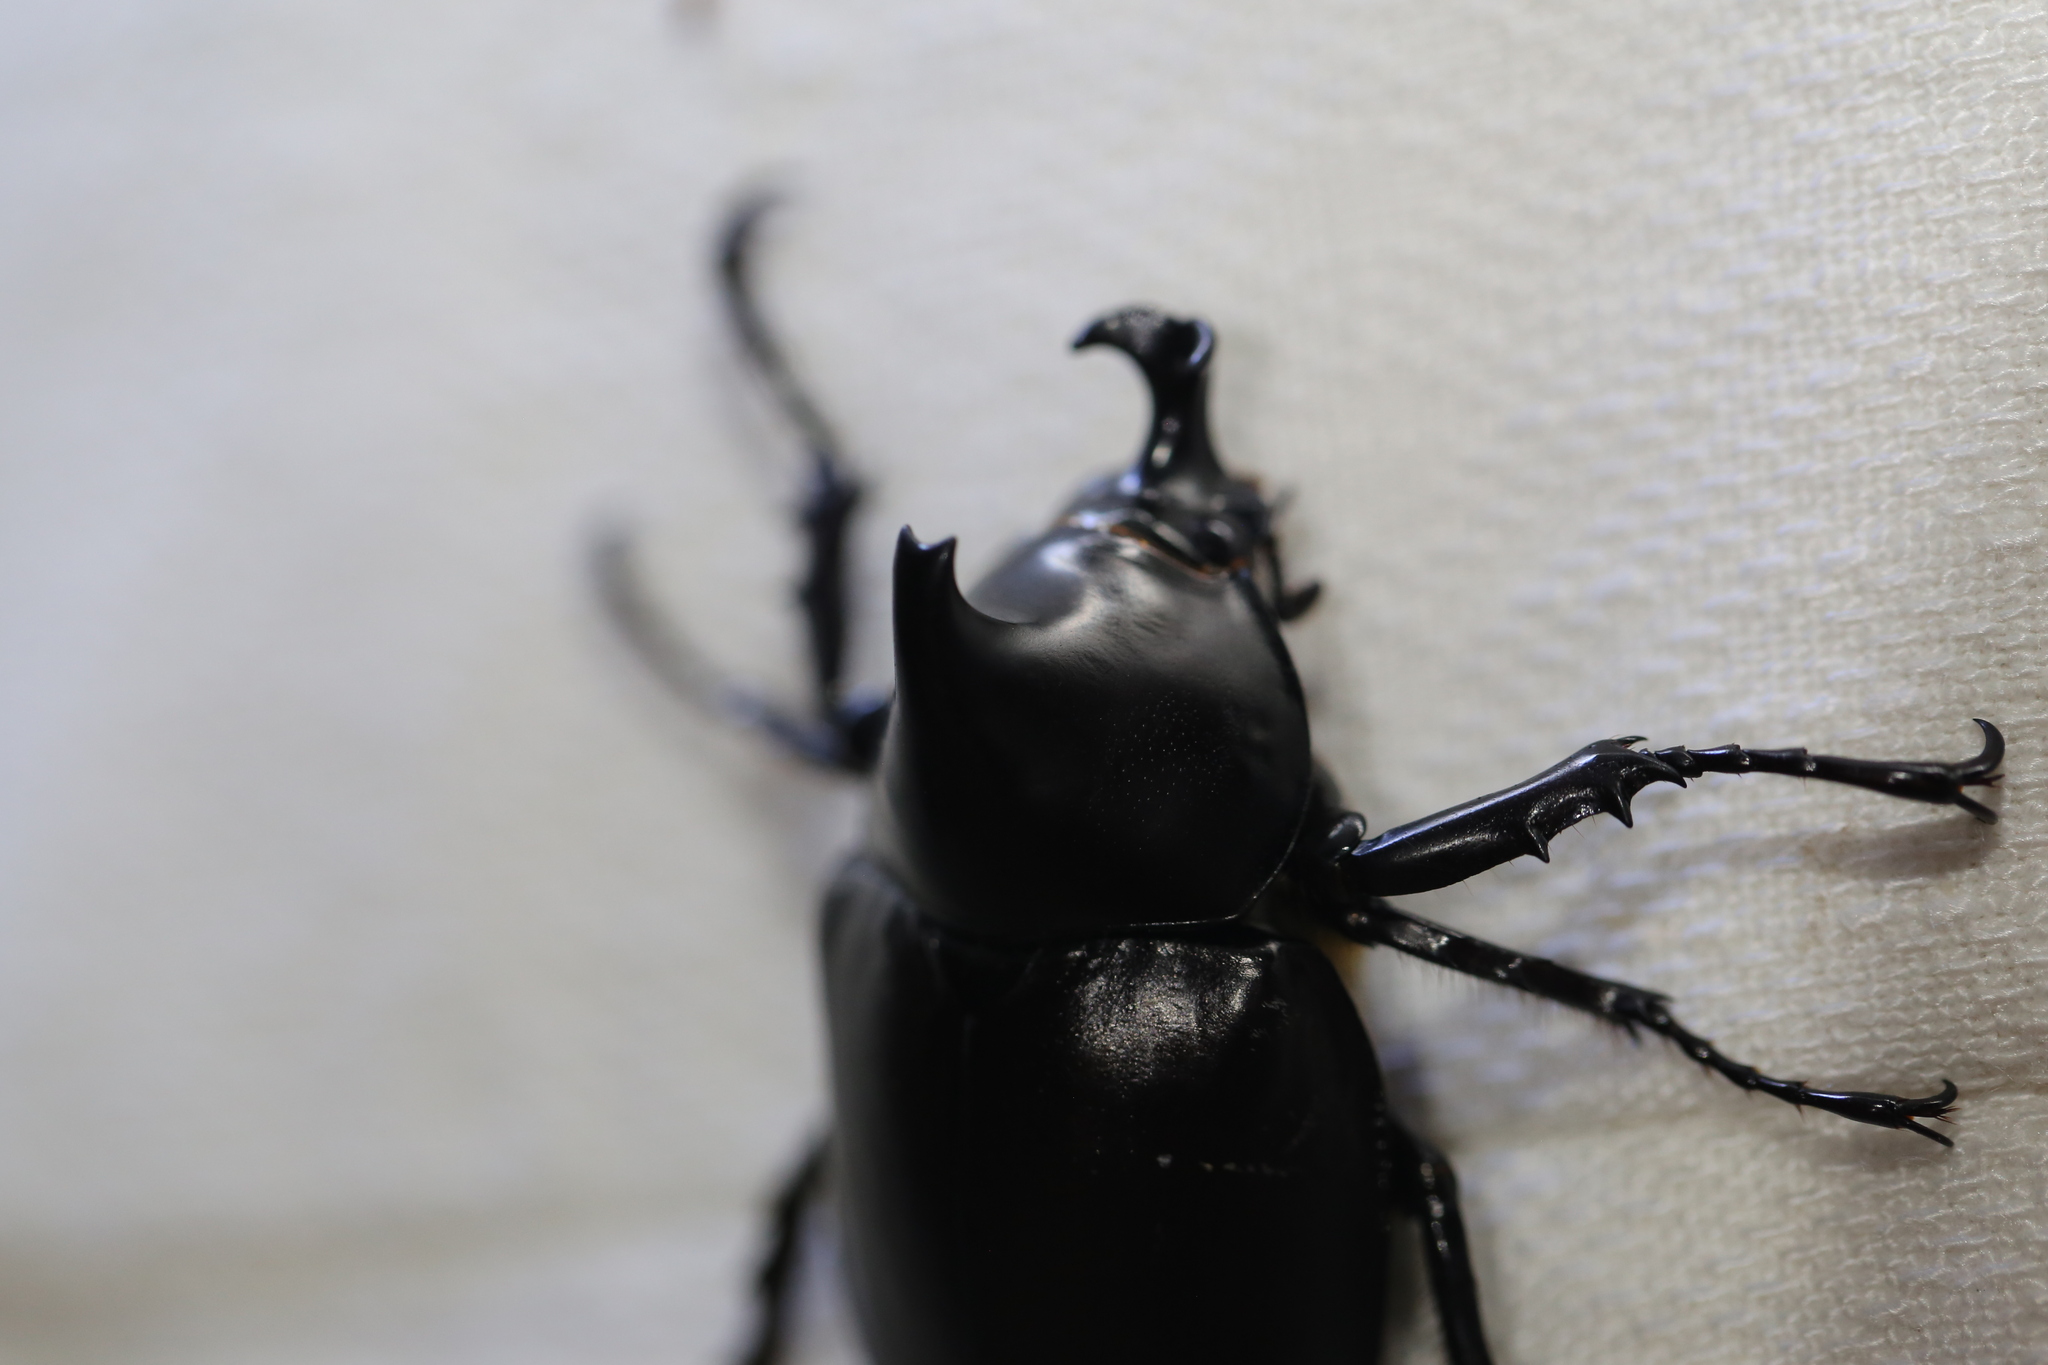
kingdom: Animalia
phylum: Arthropoda
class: Insecta
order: Coleoptera
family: Scarabaeidae
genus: Xylotrupes
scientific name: Xylotrupes australicus
